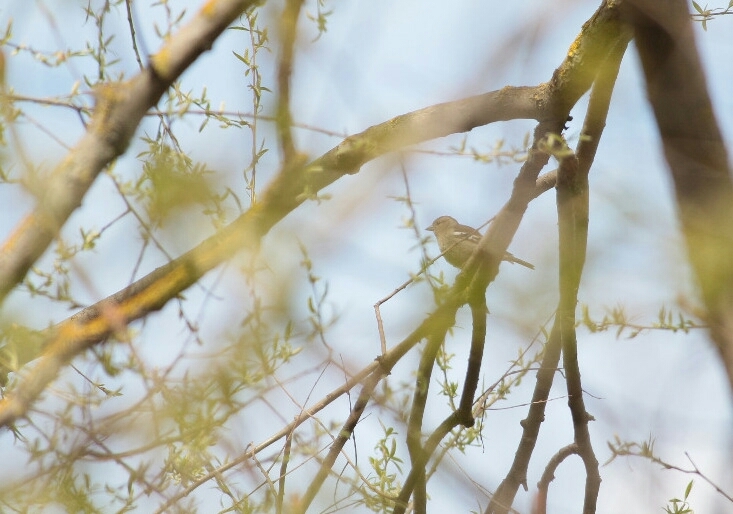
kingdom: Animalia
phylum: Chordata
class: Aves
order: Passeriformes
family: Fringillidae
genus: Fringilla
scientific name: Fringilla coelebs
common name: Common chaffinch
